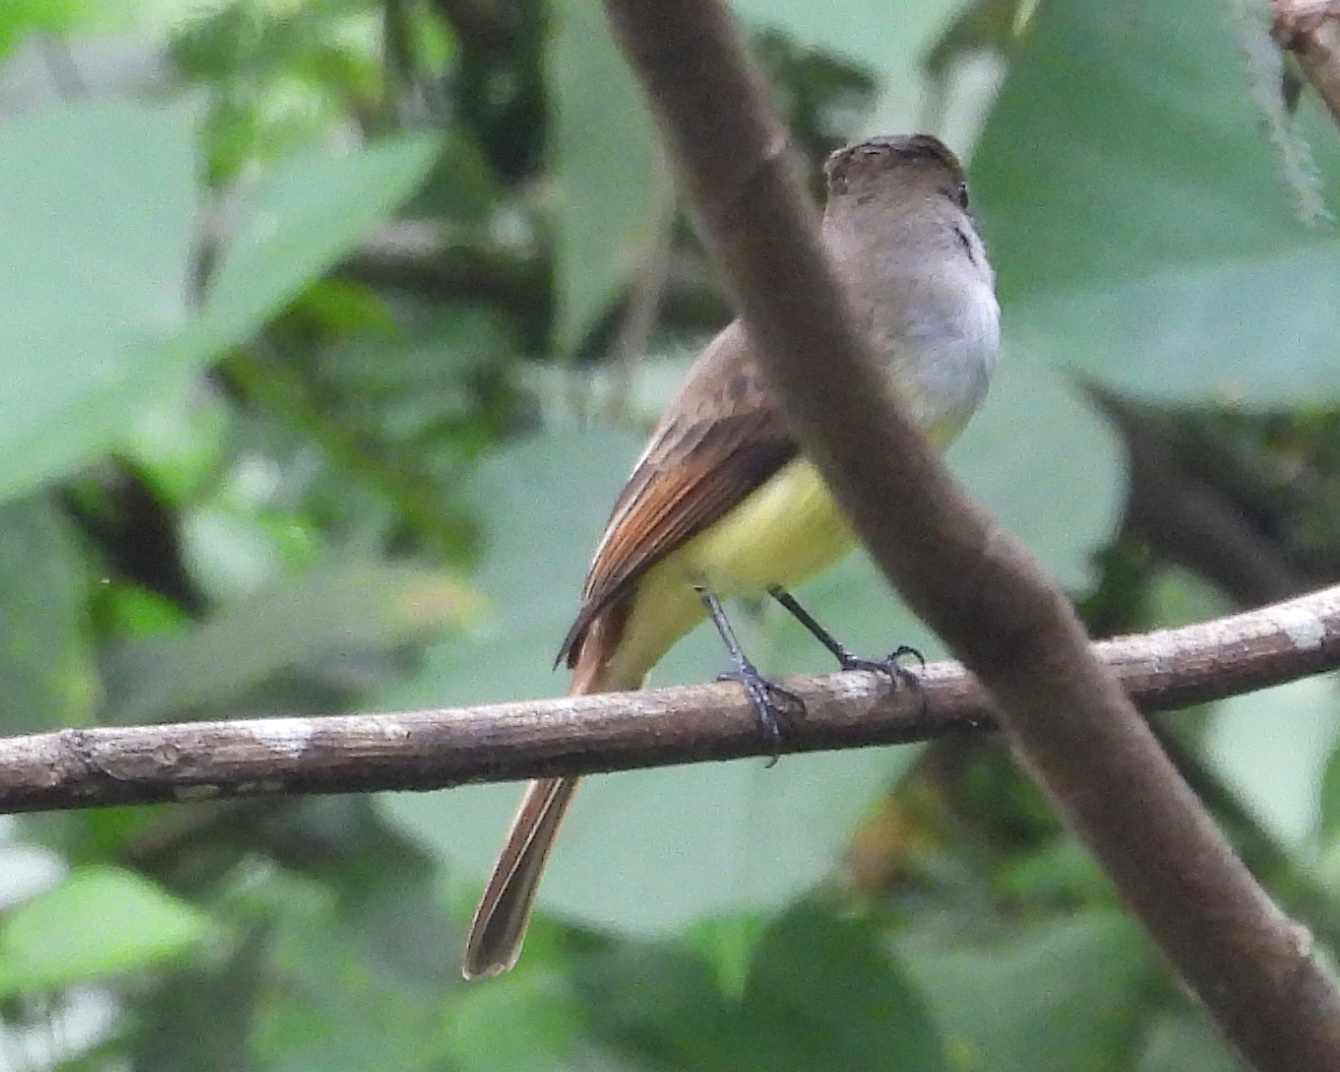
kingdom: Animalia
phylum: Chordata
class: Aves
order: Passeriformes
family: Tyrannidae
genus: Myiarchus
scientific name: Myiarchus tuberculifer
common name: Dusky-capped flycatcher
